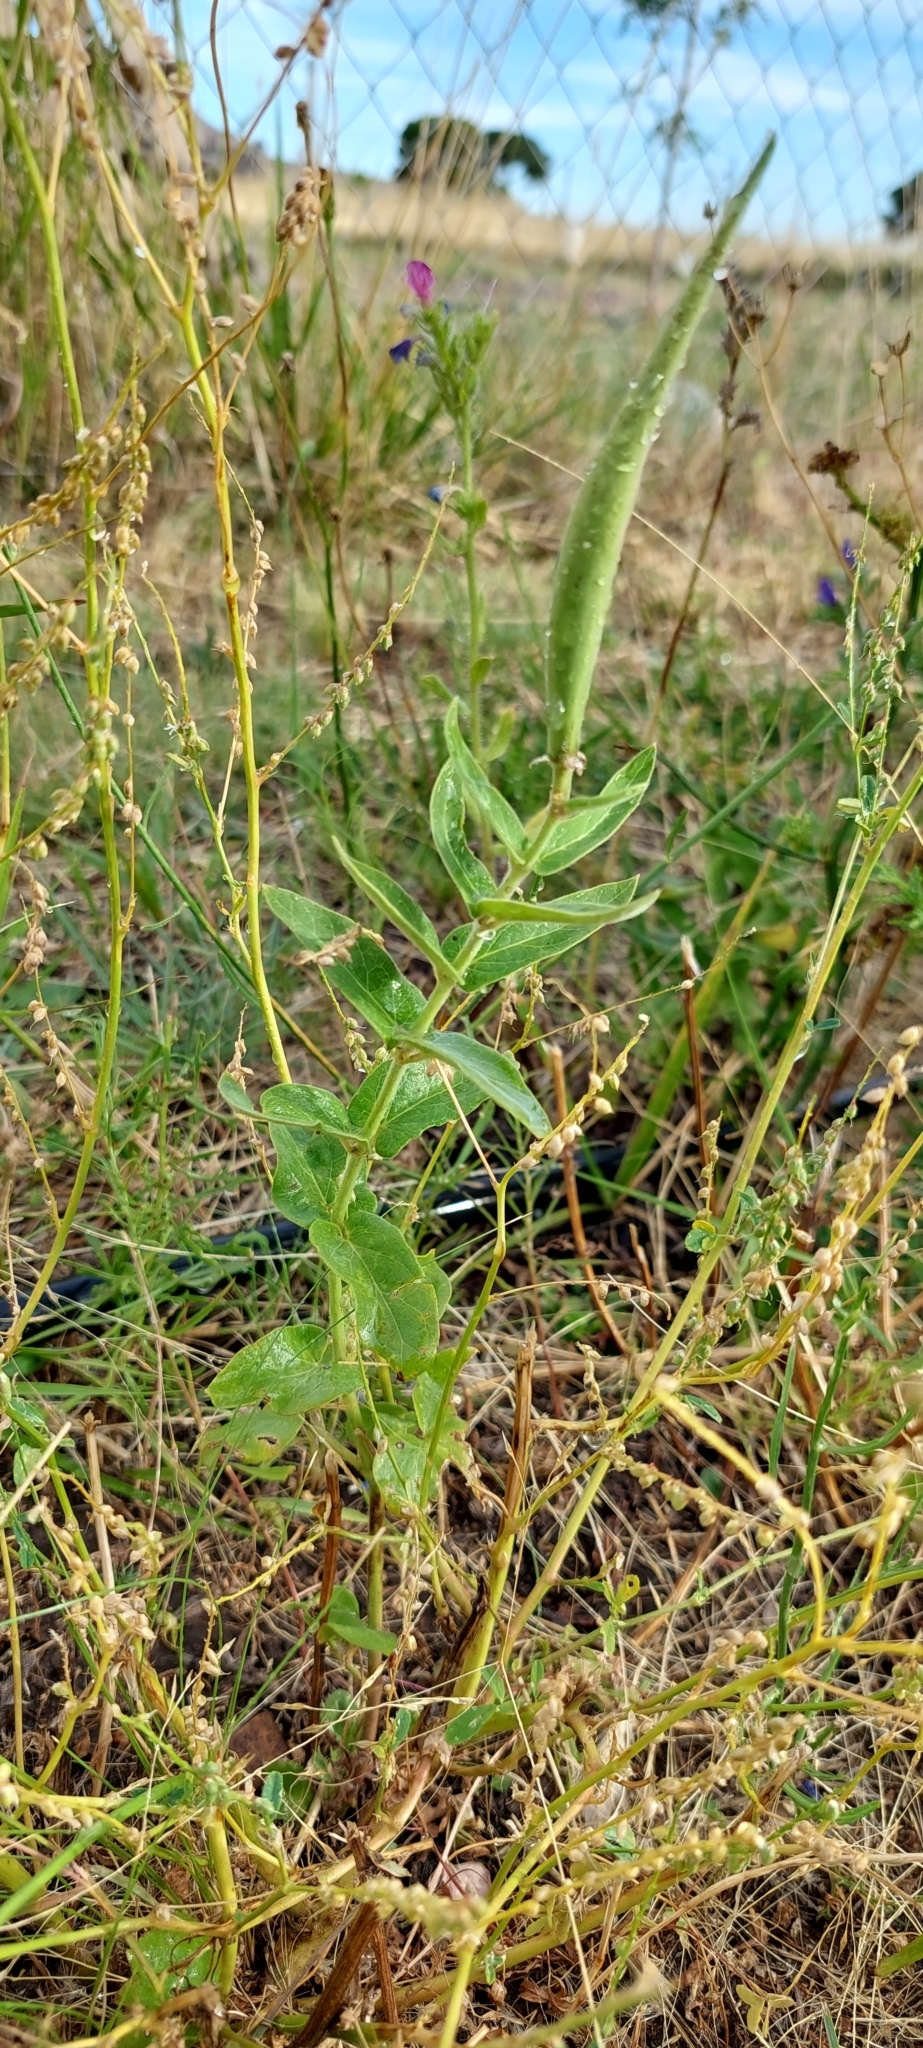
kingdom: Plantae
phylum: Tracheophyta
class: Magnoliopsida
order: Gentianales
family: Apocynaceae
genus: Oxypetalum
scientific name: Oxypetalum solanoides
